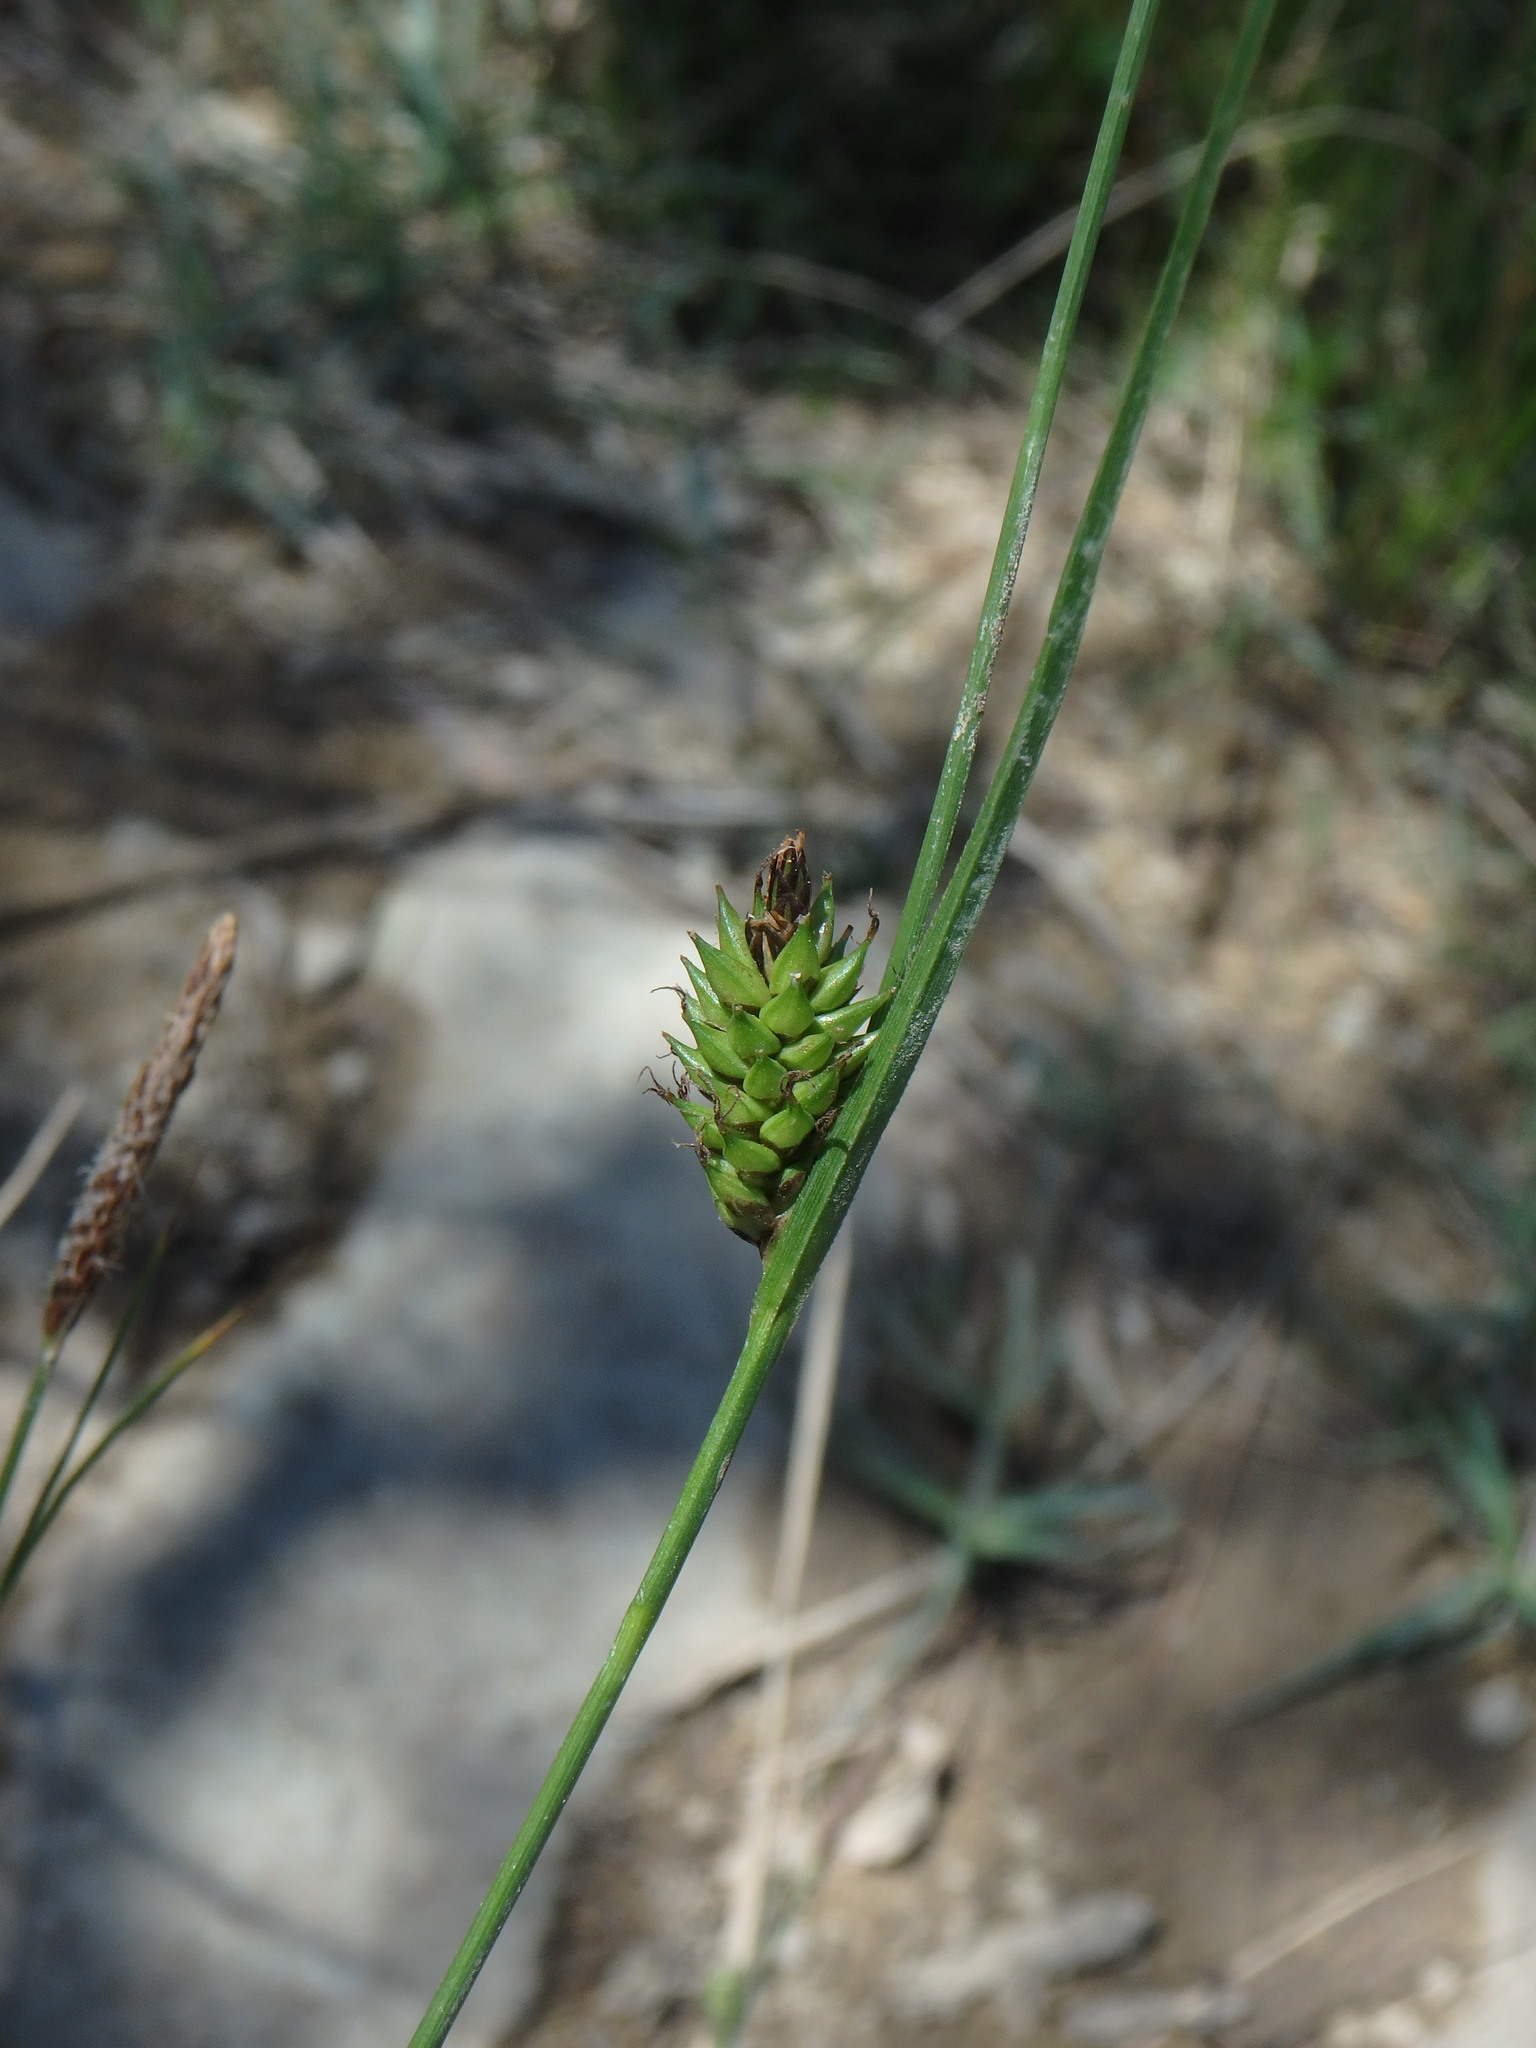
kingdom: Plantae
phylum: Tracheophyta
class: Liliopsida
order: Poales
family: Cyperaceae
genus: Carex
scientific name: Carex flacca
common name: Glaucous sedge
